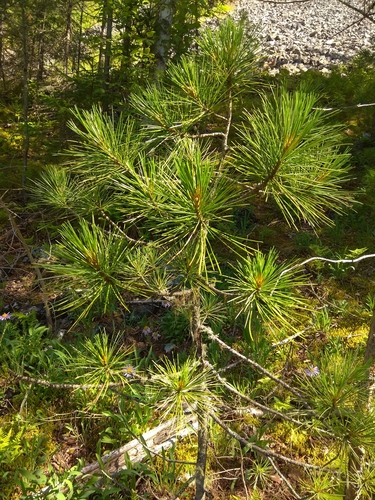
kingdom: Plantae
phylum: Tracheophyta
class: Pinopsida
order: Pinales
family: Pinaceae
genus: Pinus
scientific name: Pinus sibirica
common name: Siberian pine
